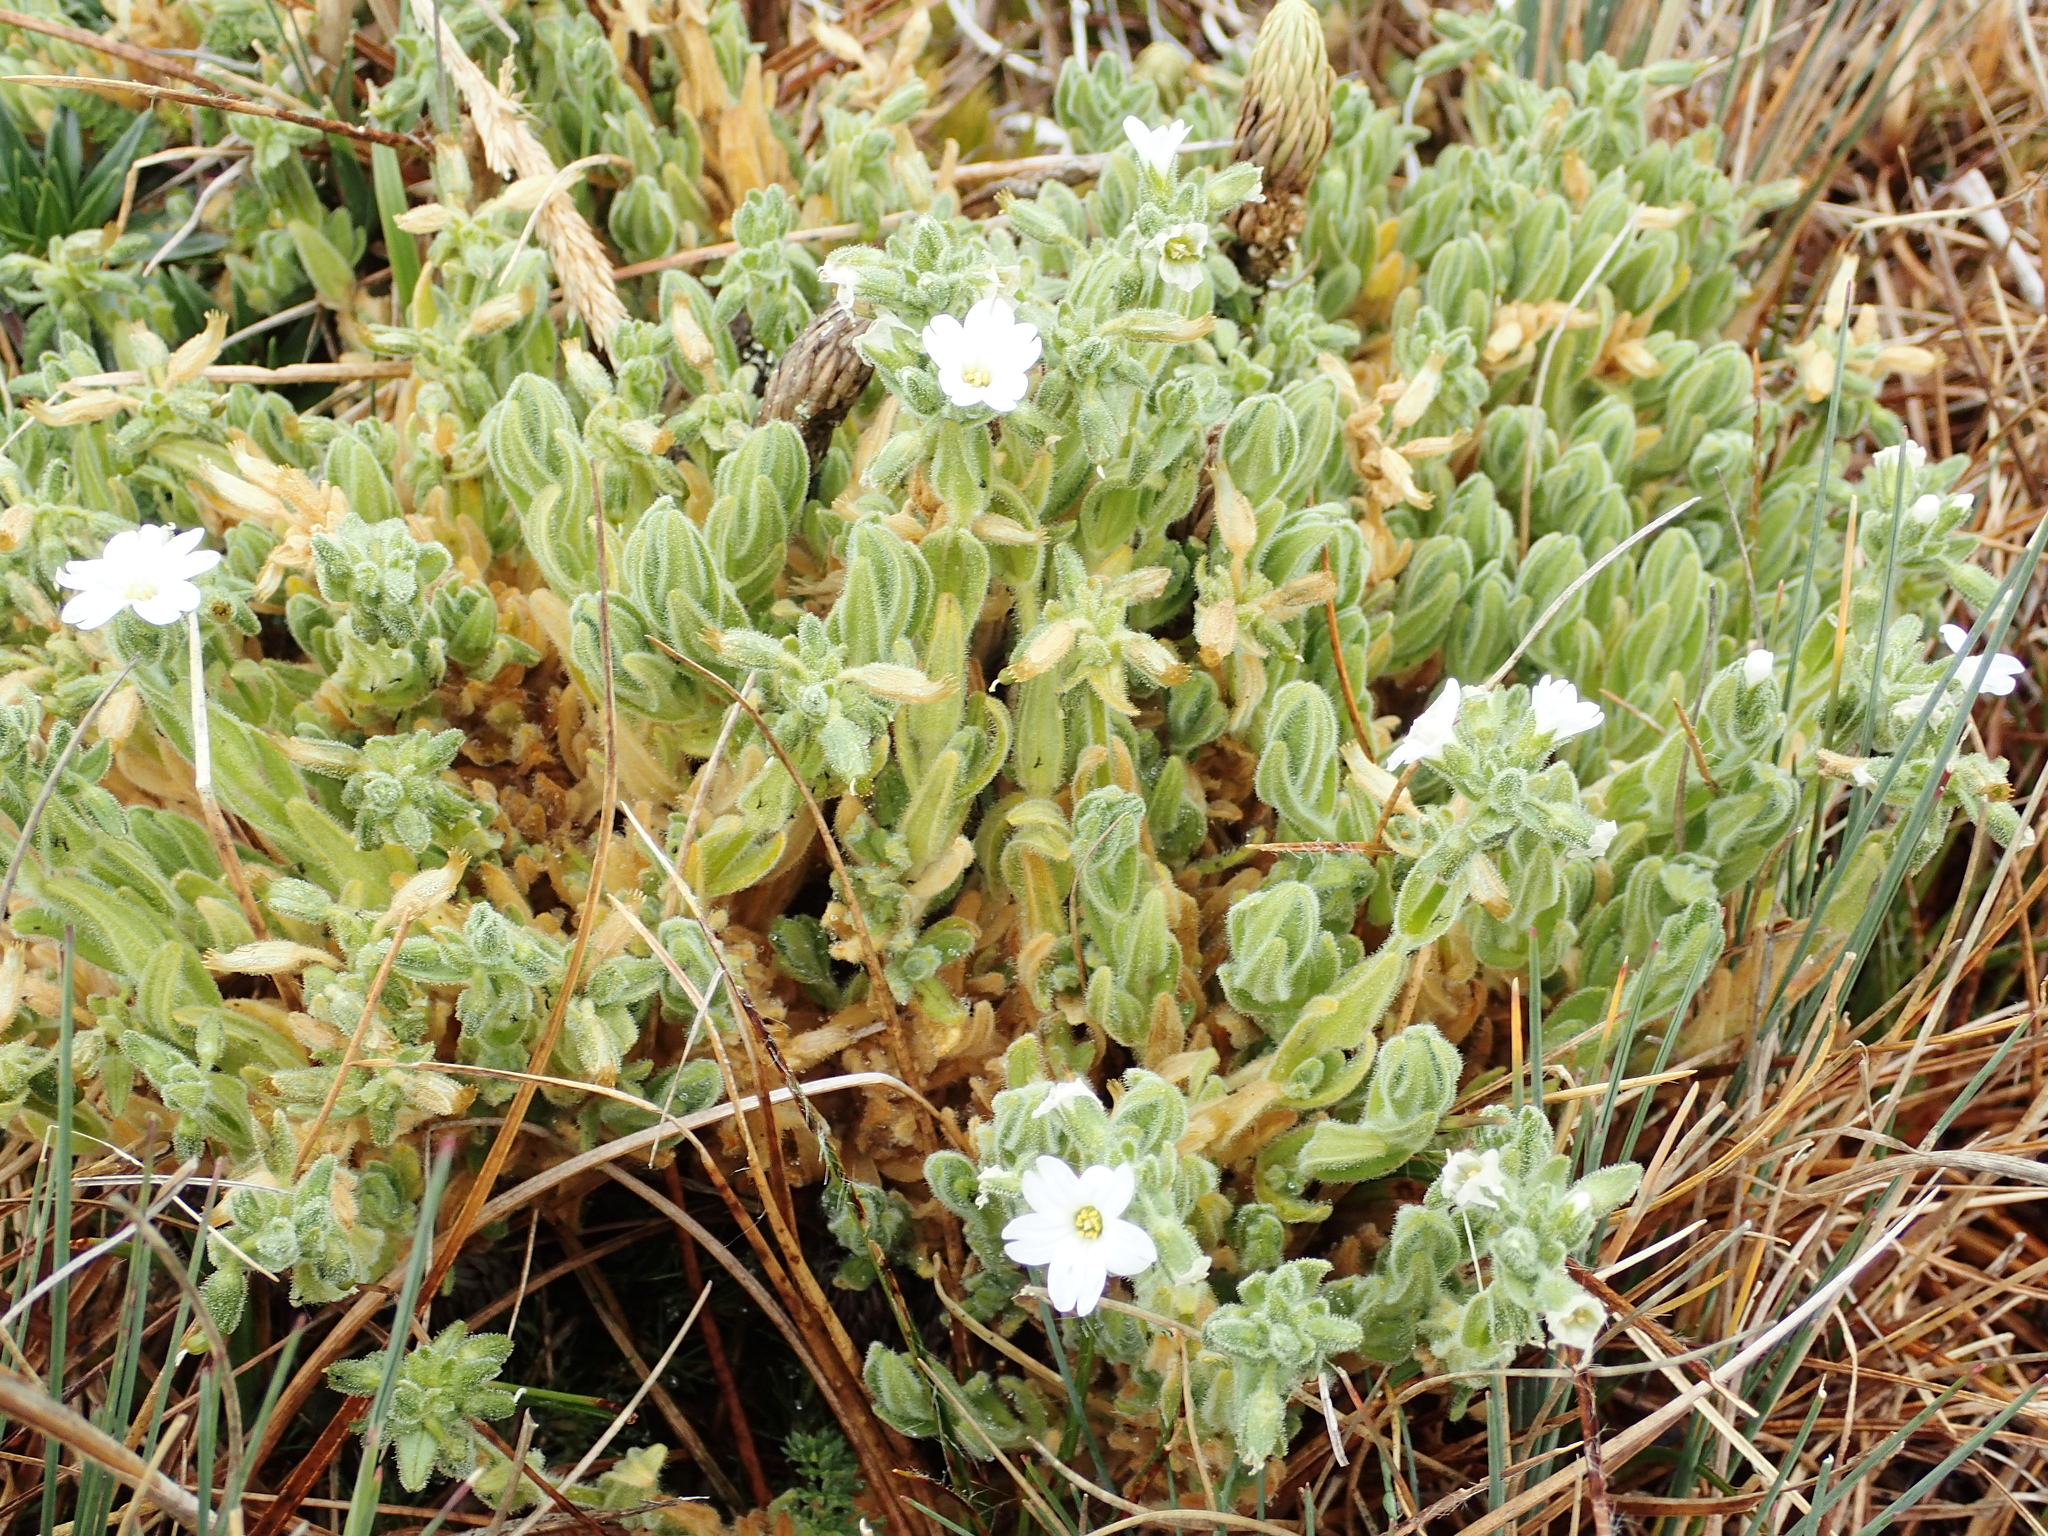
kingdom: Plantae
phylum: Tracheophyta
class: Magnoliopsida
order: Caryophyllales
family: Caryophyllaceae
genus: Cerastium
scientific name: Cerastium floccosum
